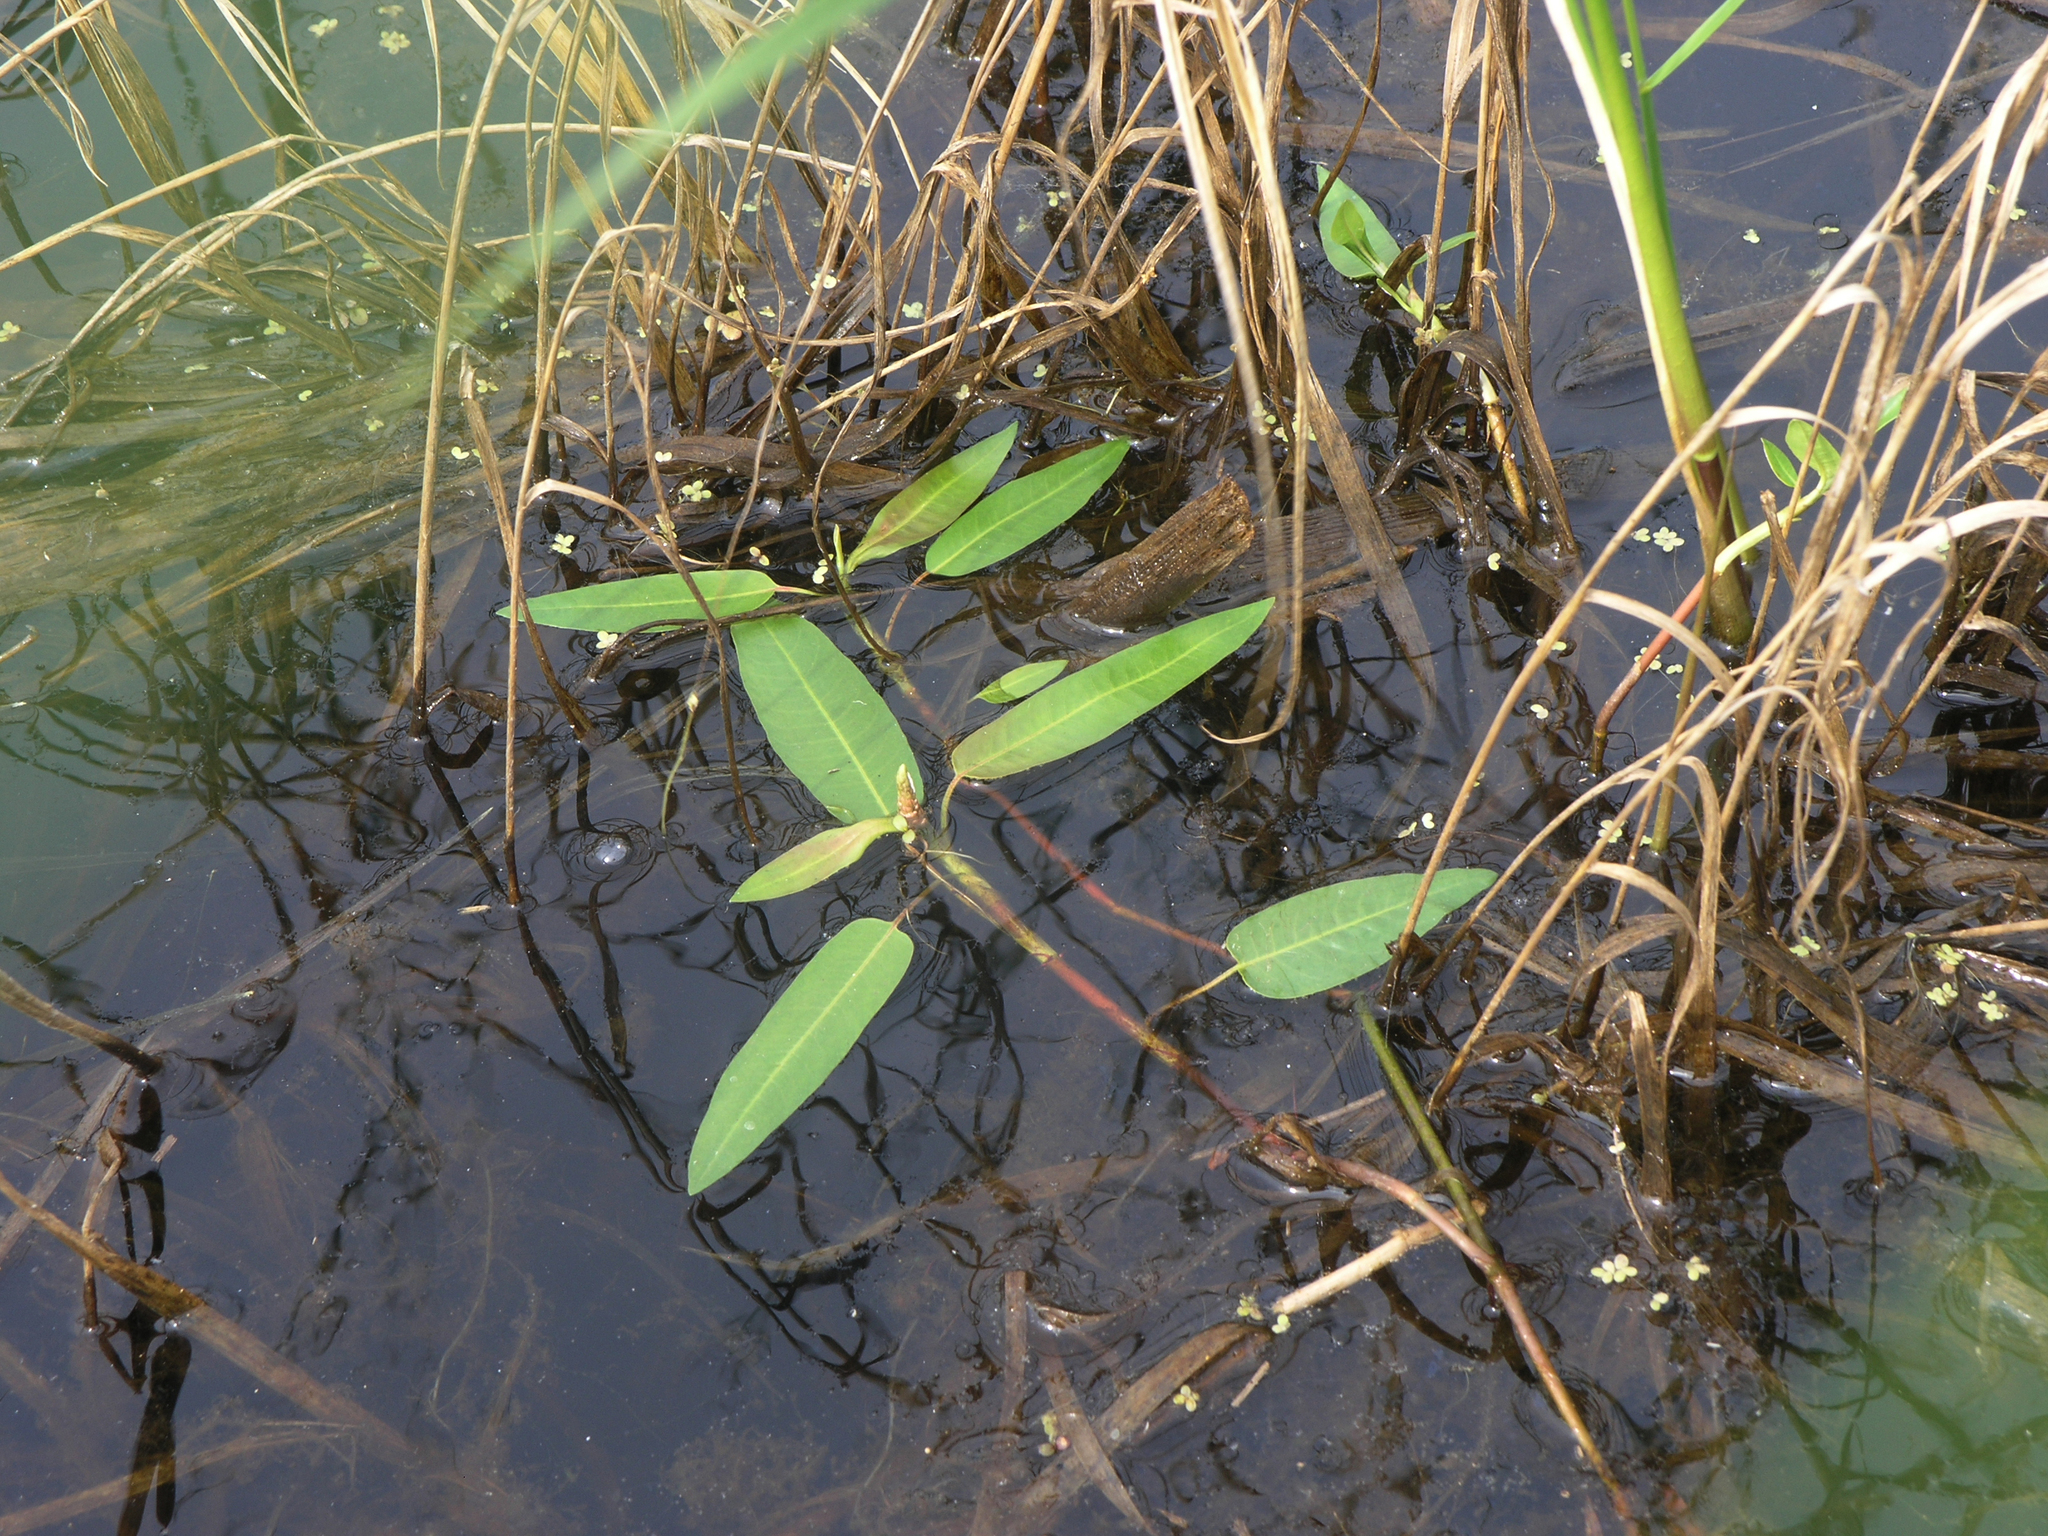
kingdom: Plantae
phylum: Tracheophyta
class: Magnoliopsida
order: Caryophyllales
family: Polygonaceae
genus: Persicaria
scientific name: Persicaria amphibia
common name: Amphibious bistort
